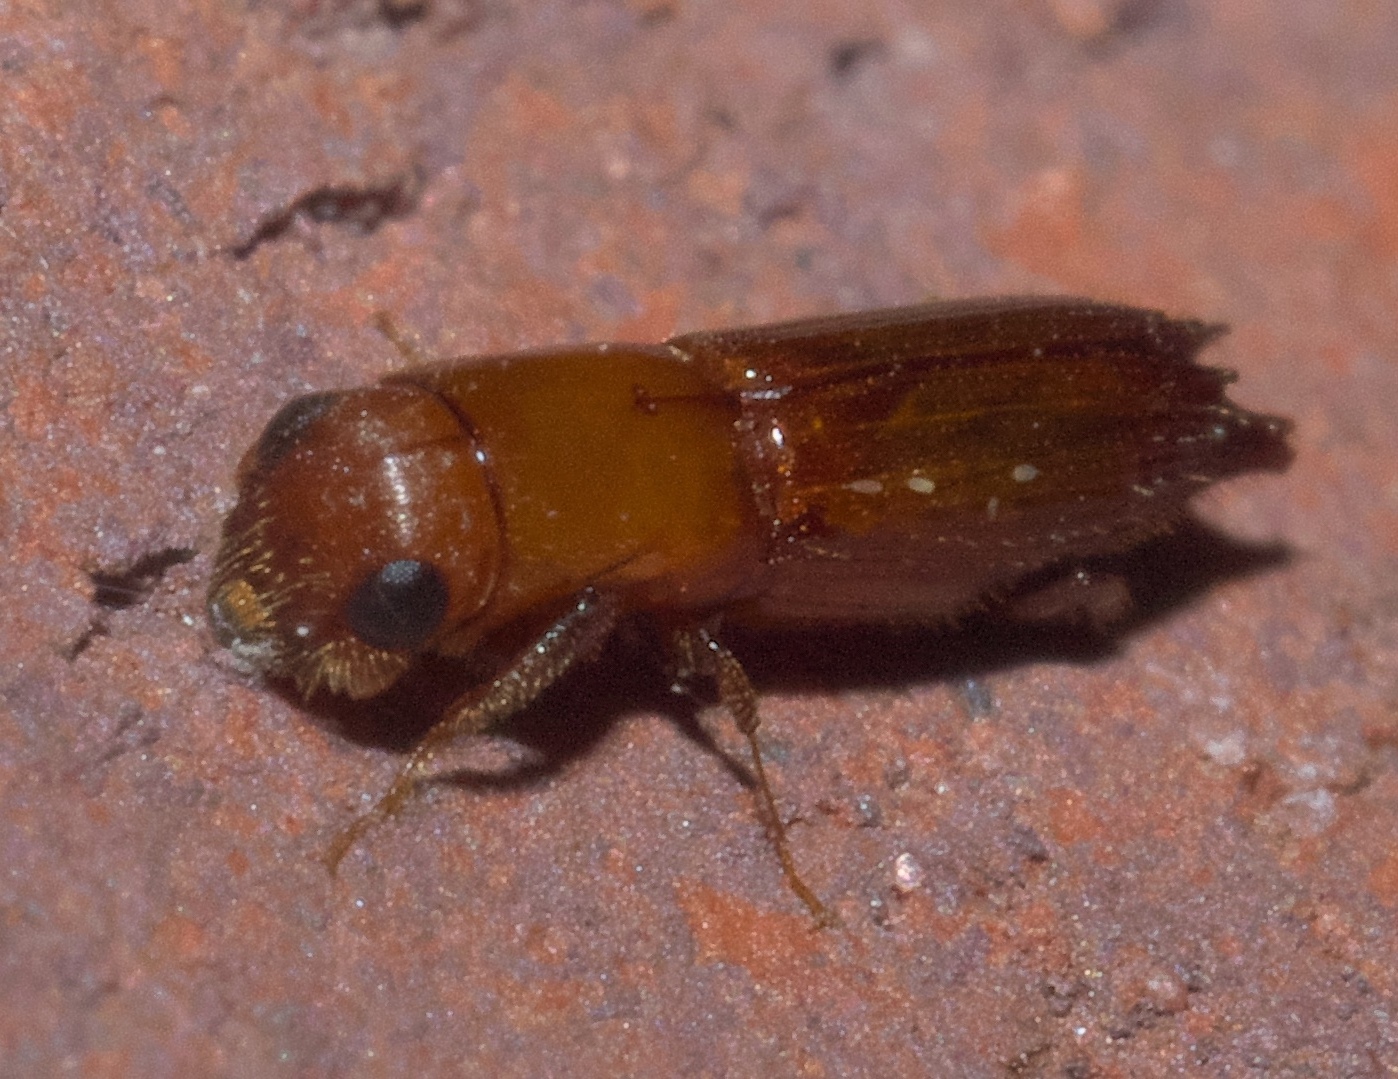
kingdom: Animalia
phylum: Arthropoda
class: Insecta
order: Coleoptera
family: Curculionidae
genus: Euplatypus
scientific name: Euplatypus compositus
